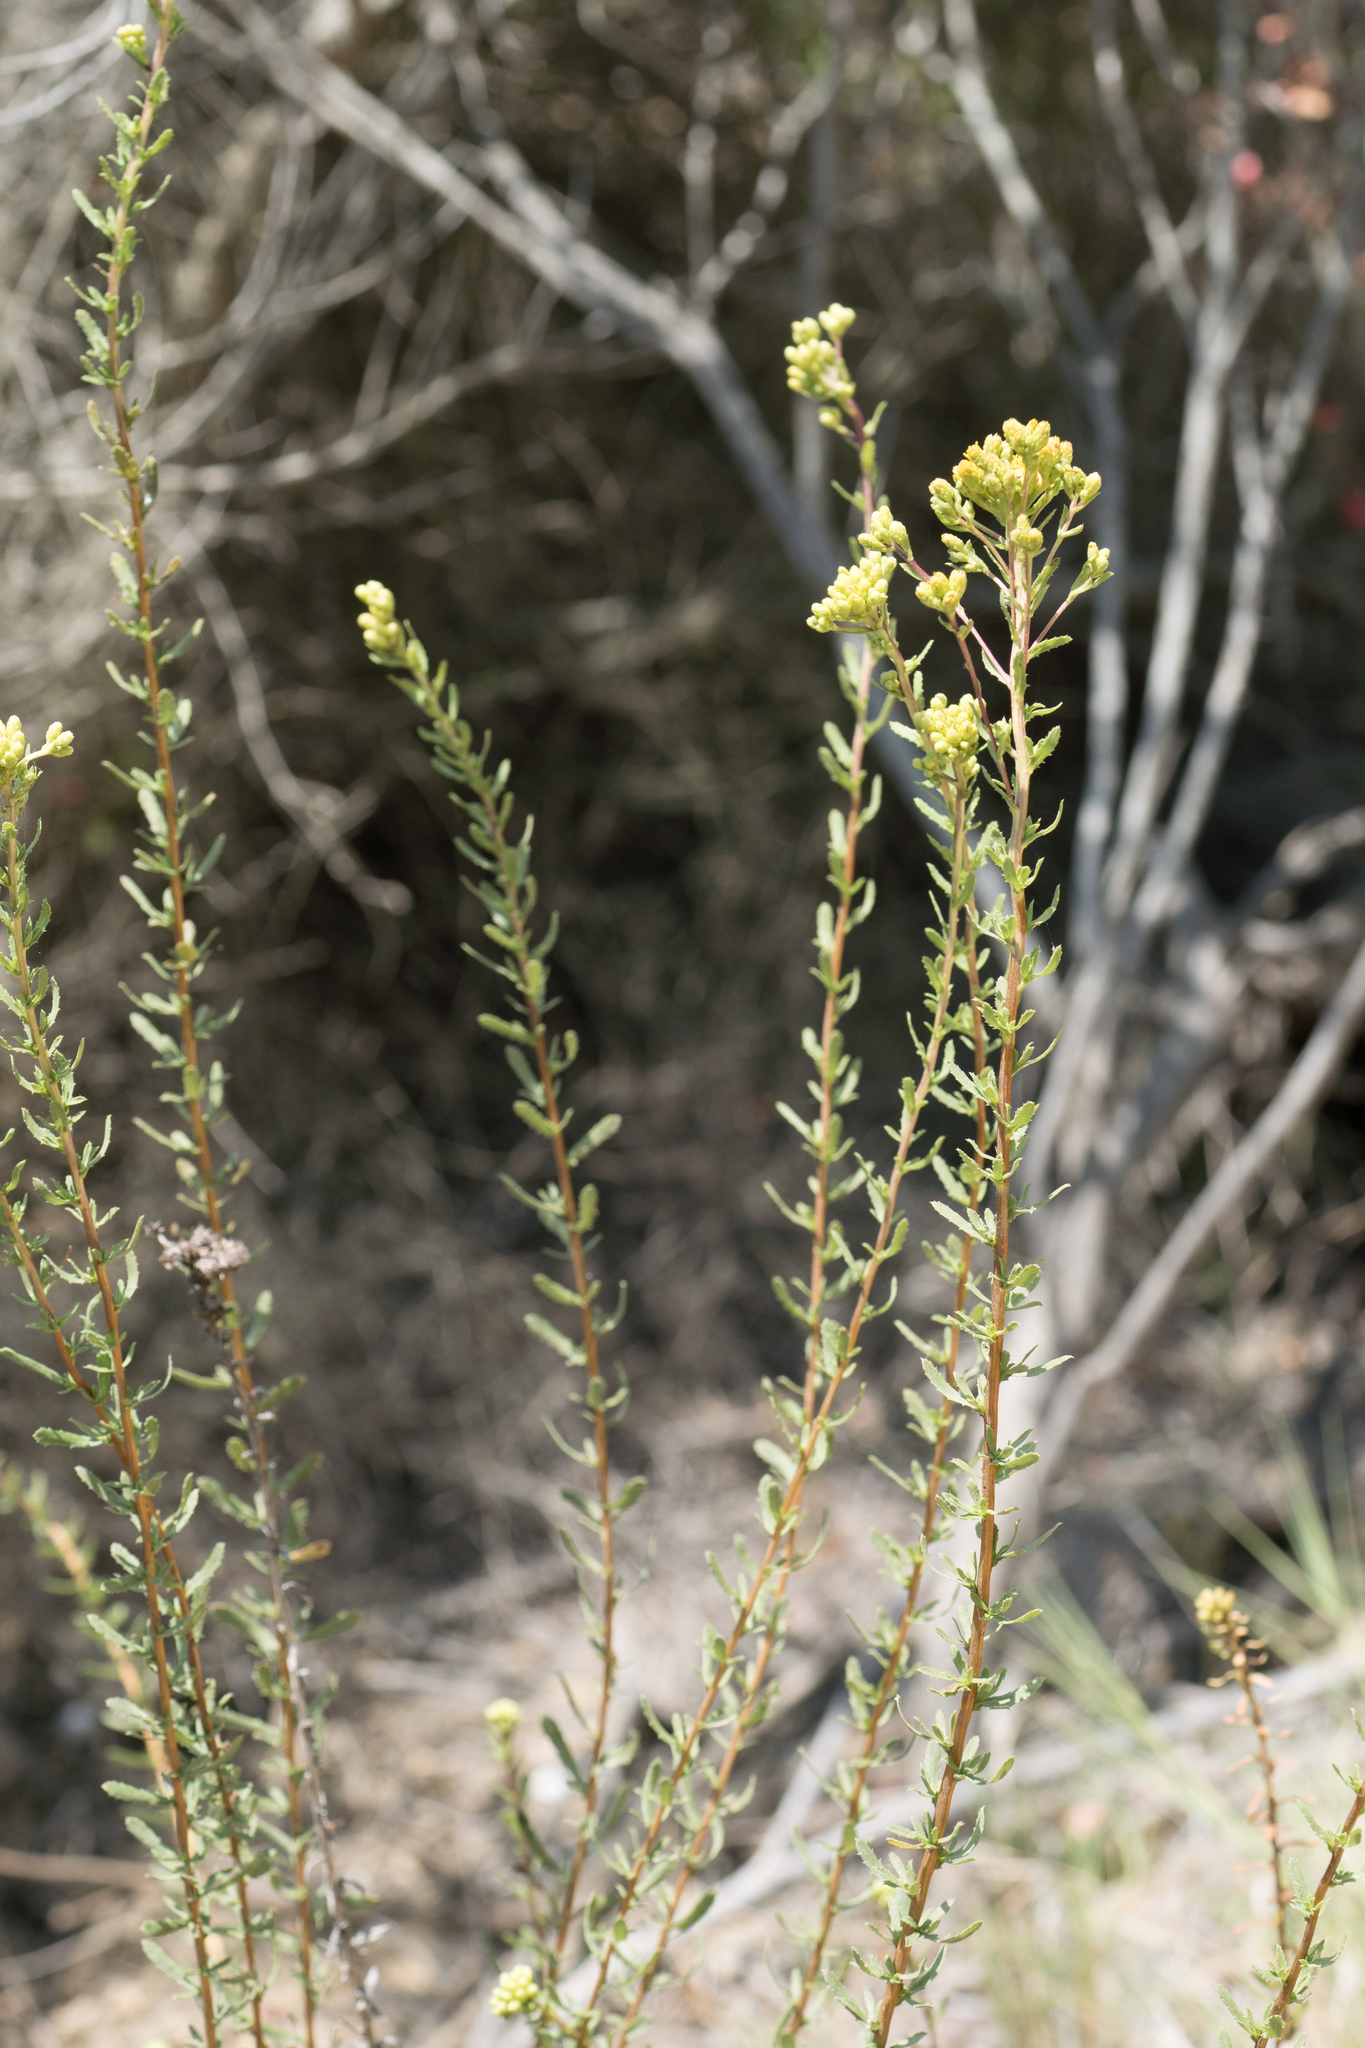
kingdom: Plantae
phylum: Tracheophyta
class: Magnoliopsida
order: Asterales
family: Asteraceae
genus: Isocoma
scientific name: Isocoma menziesii
